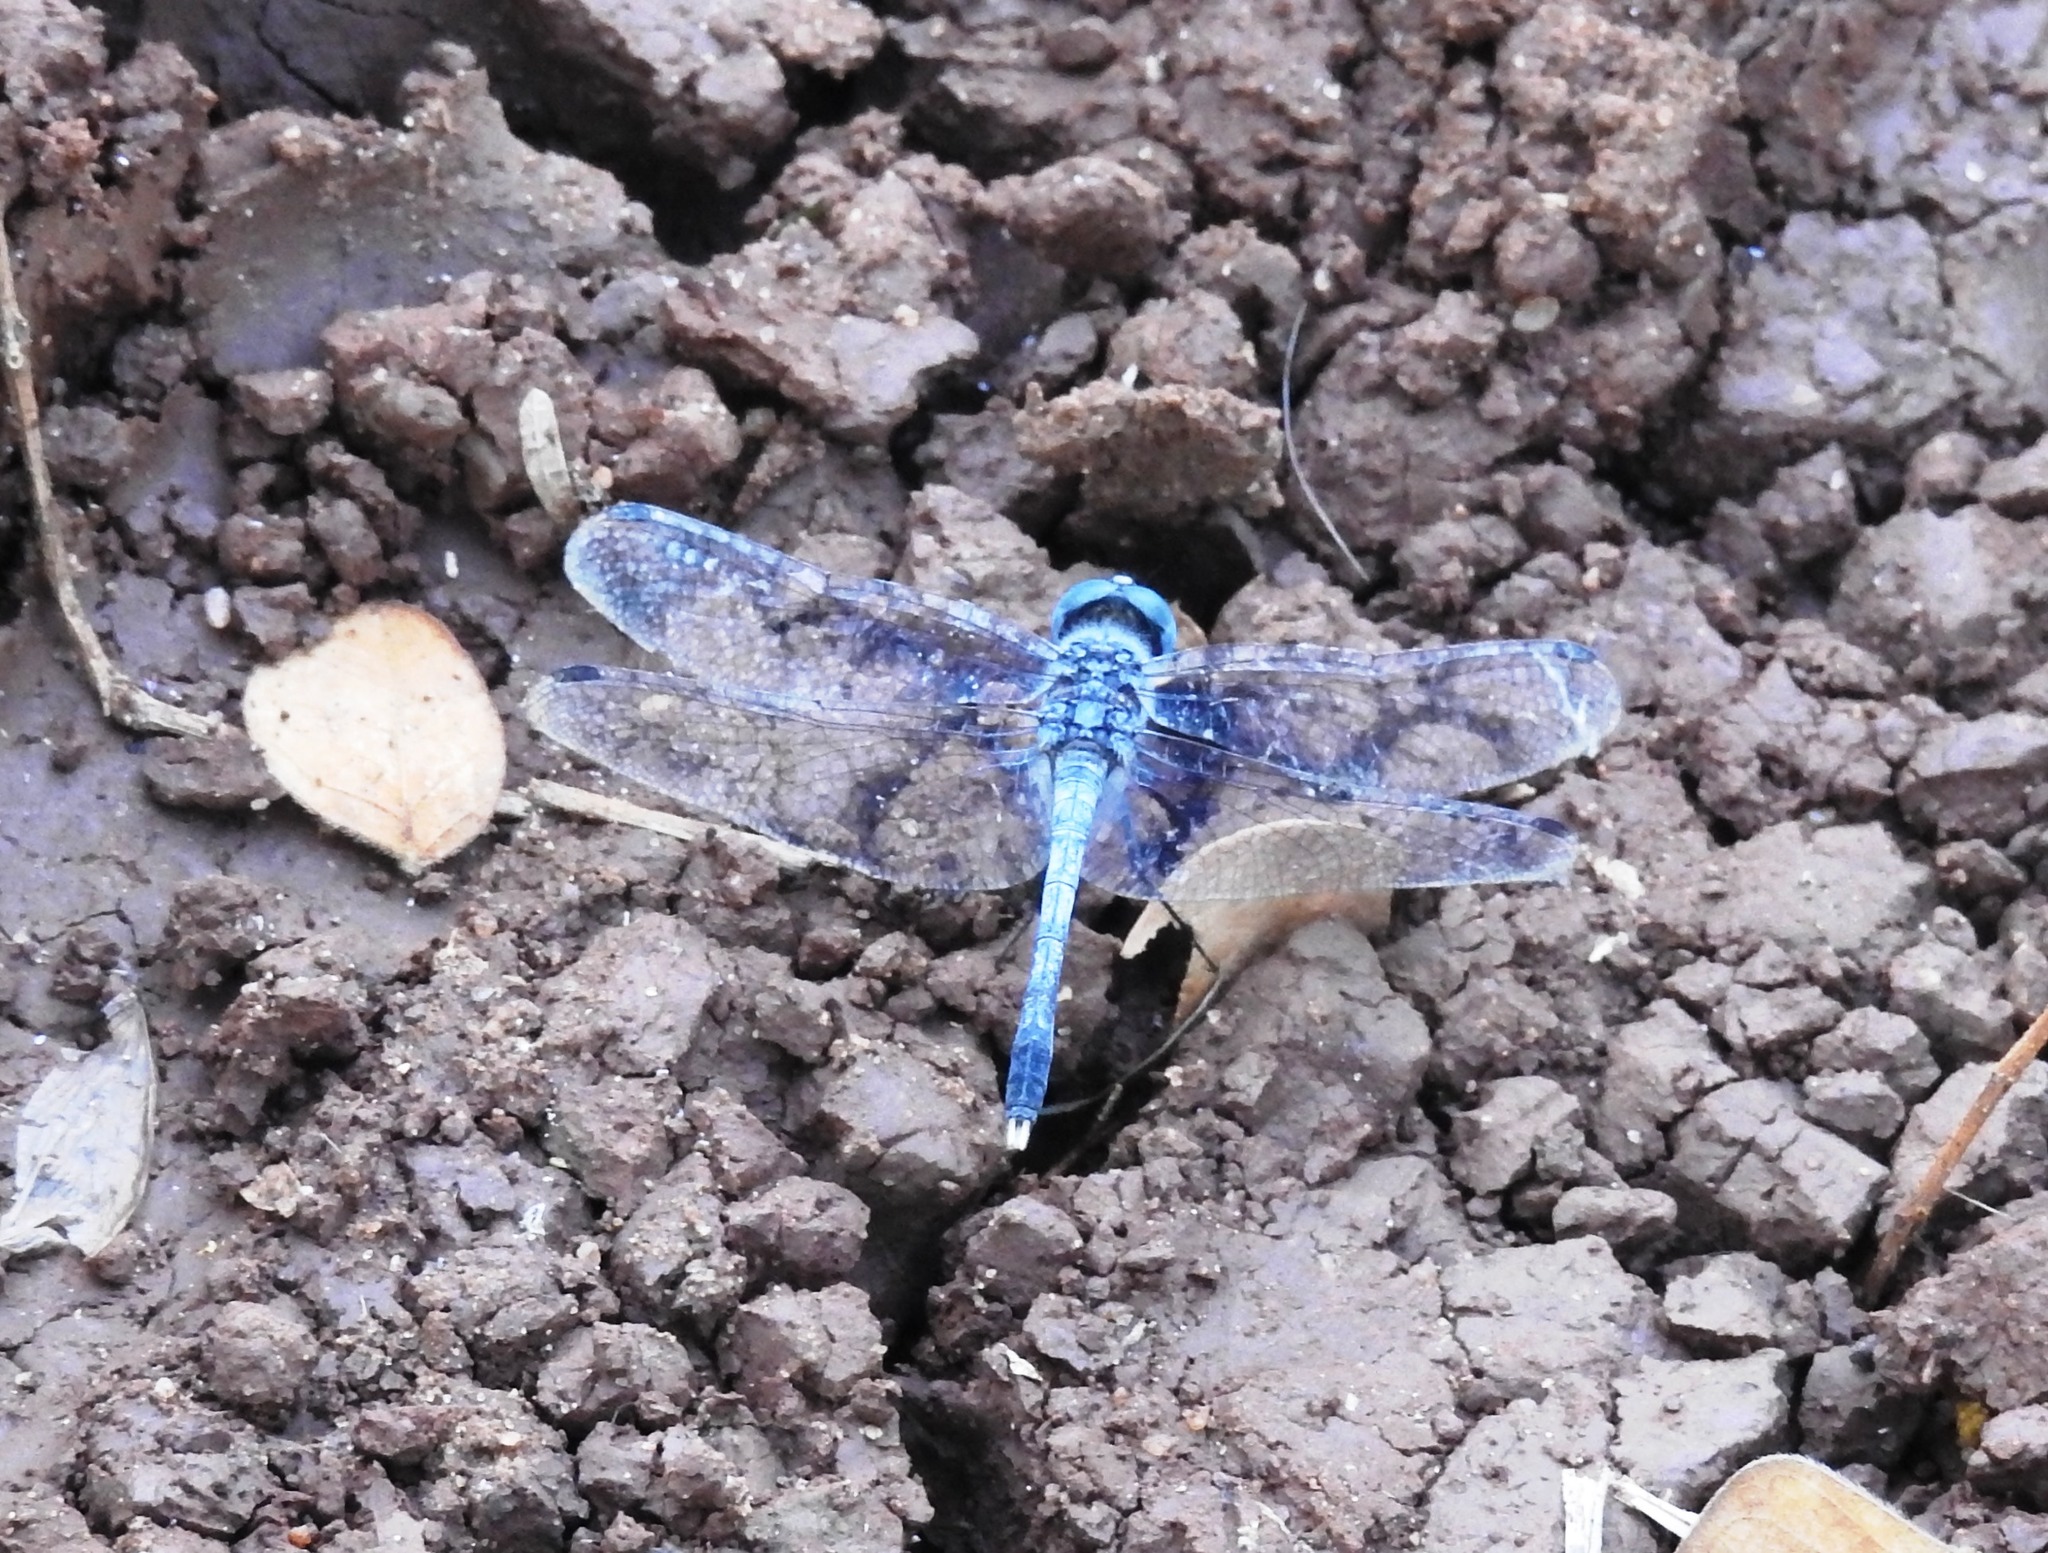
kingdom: Animalia
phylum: Arthropoda
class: Insecta
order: Odonata
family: Libellulidae
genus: Diplacodes
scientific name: Diplacodes trivialis
